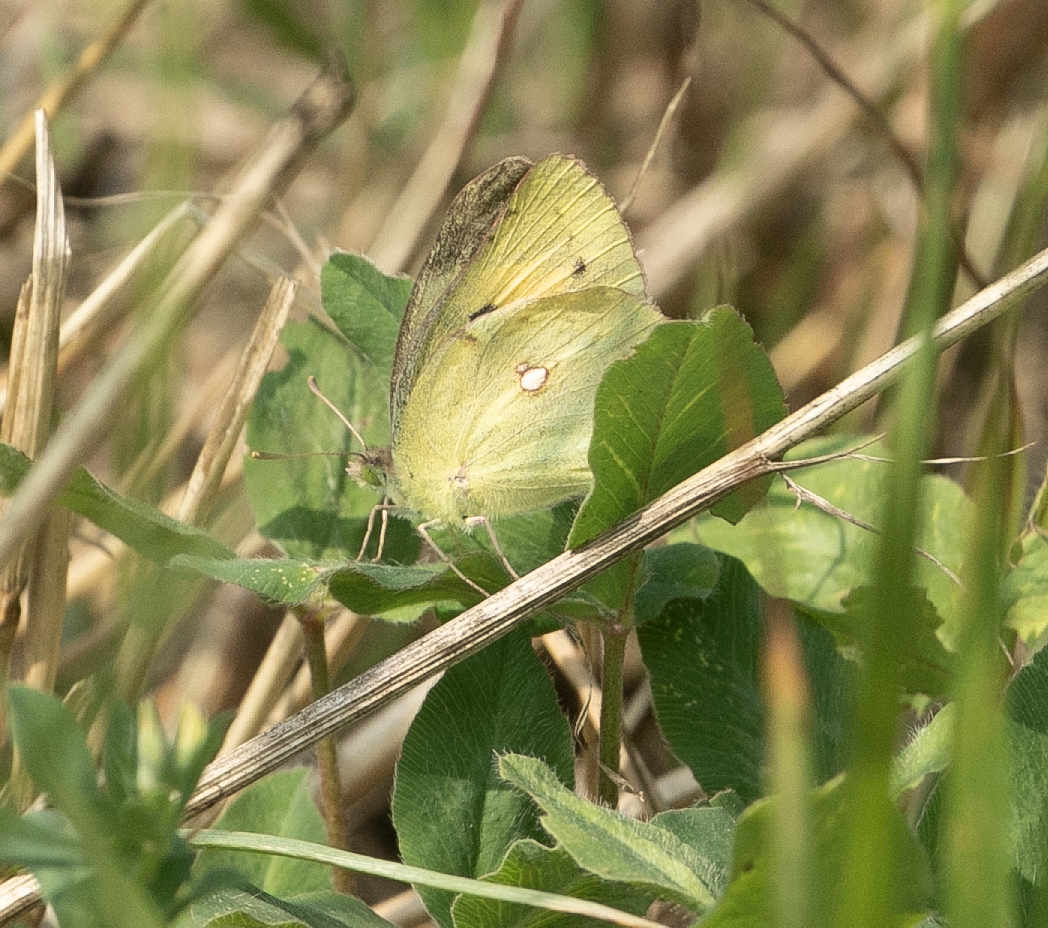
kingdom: Animalia
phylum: Arthropoda
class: Insecta
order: Lepidoptera
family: Pieridae
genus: Colias
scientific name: Colias croceus
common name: Clouded yellow
